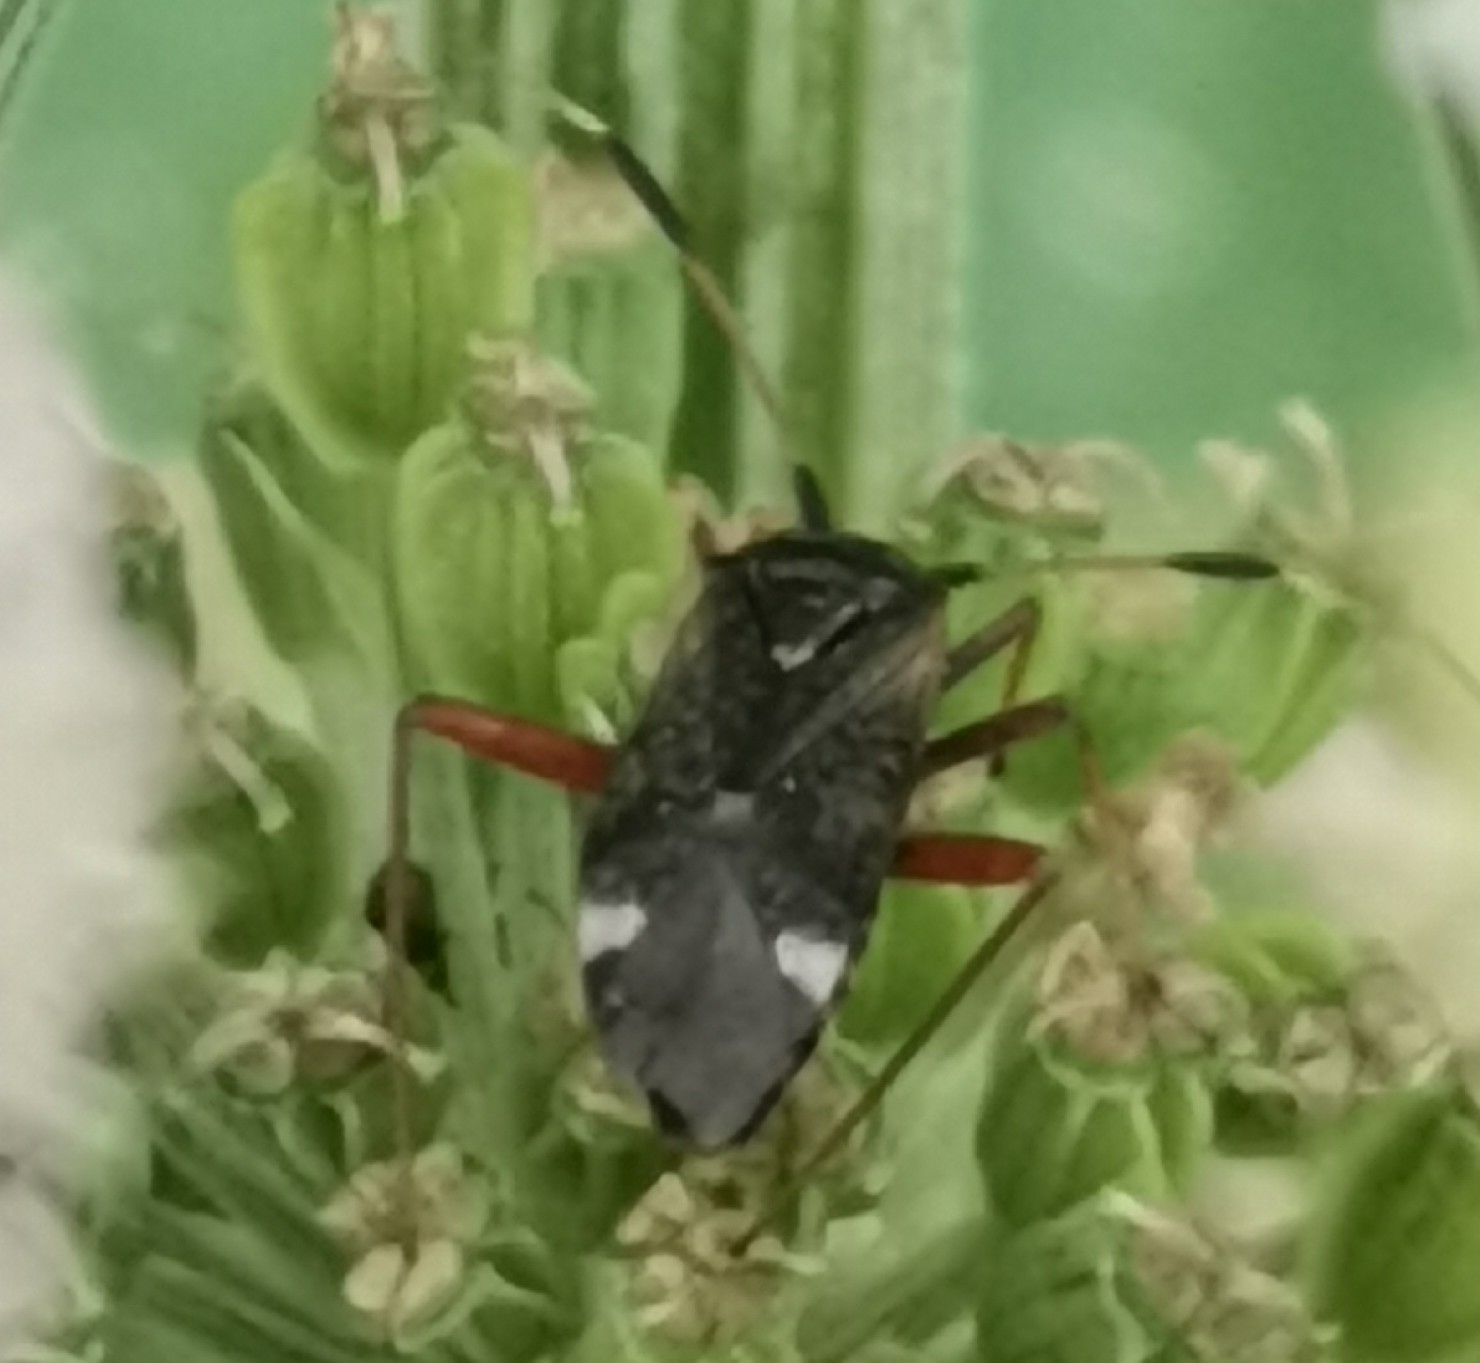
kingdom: Animalia
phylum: Arthropoda
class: Insecta
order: Hemiptera
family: Miridae
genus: Closterotomus
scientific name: Closterotomus biclavatus
